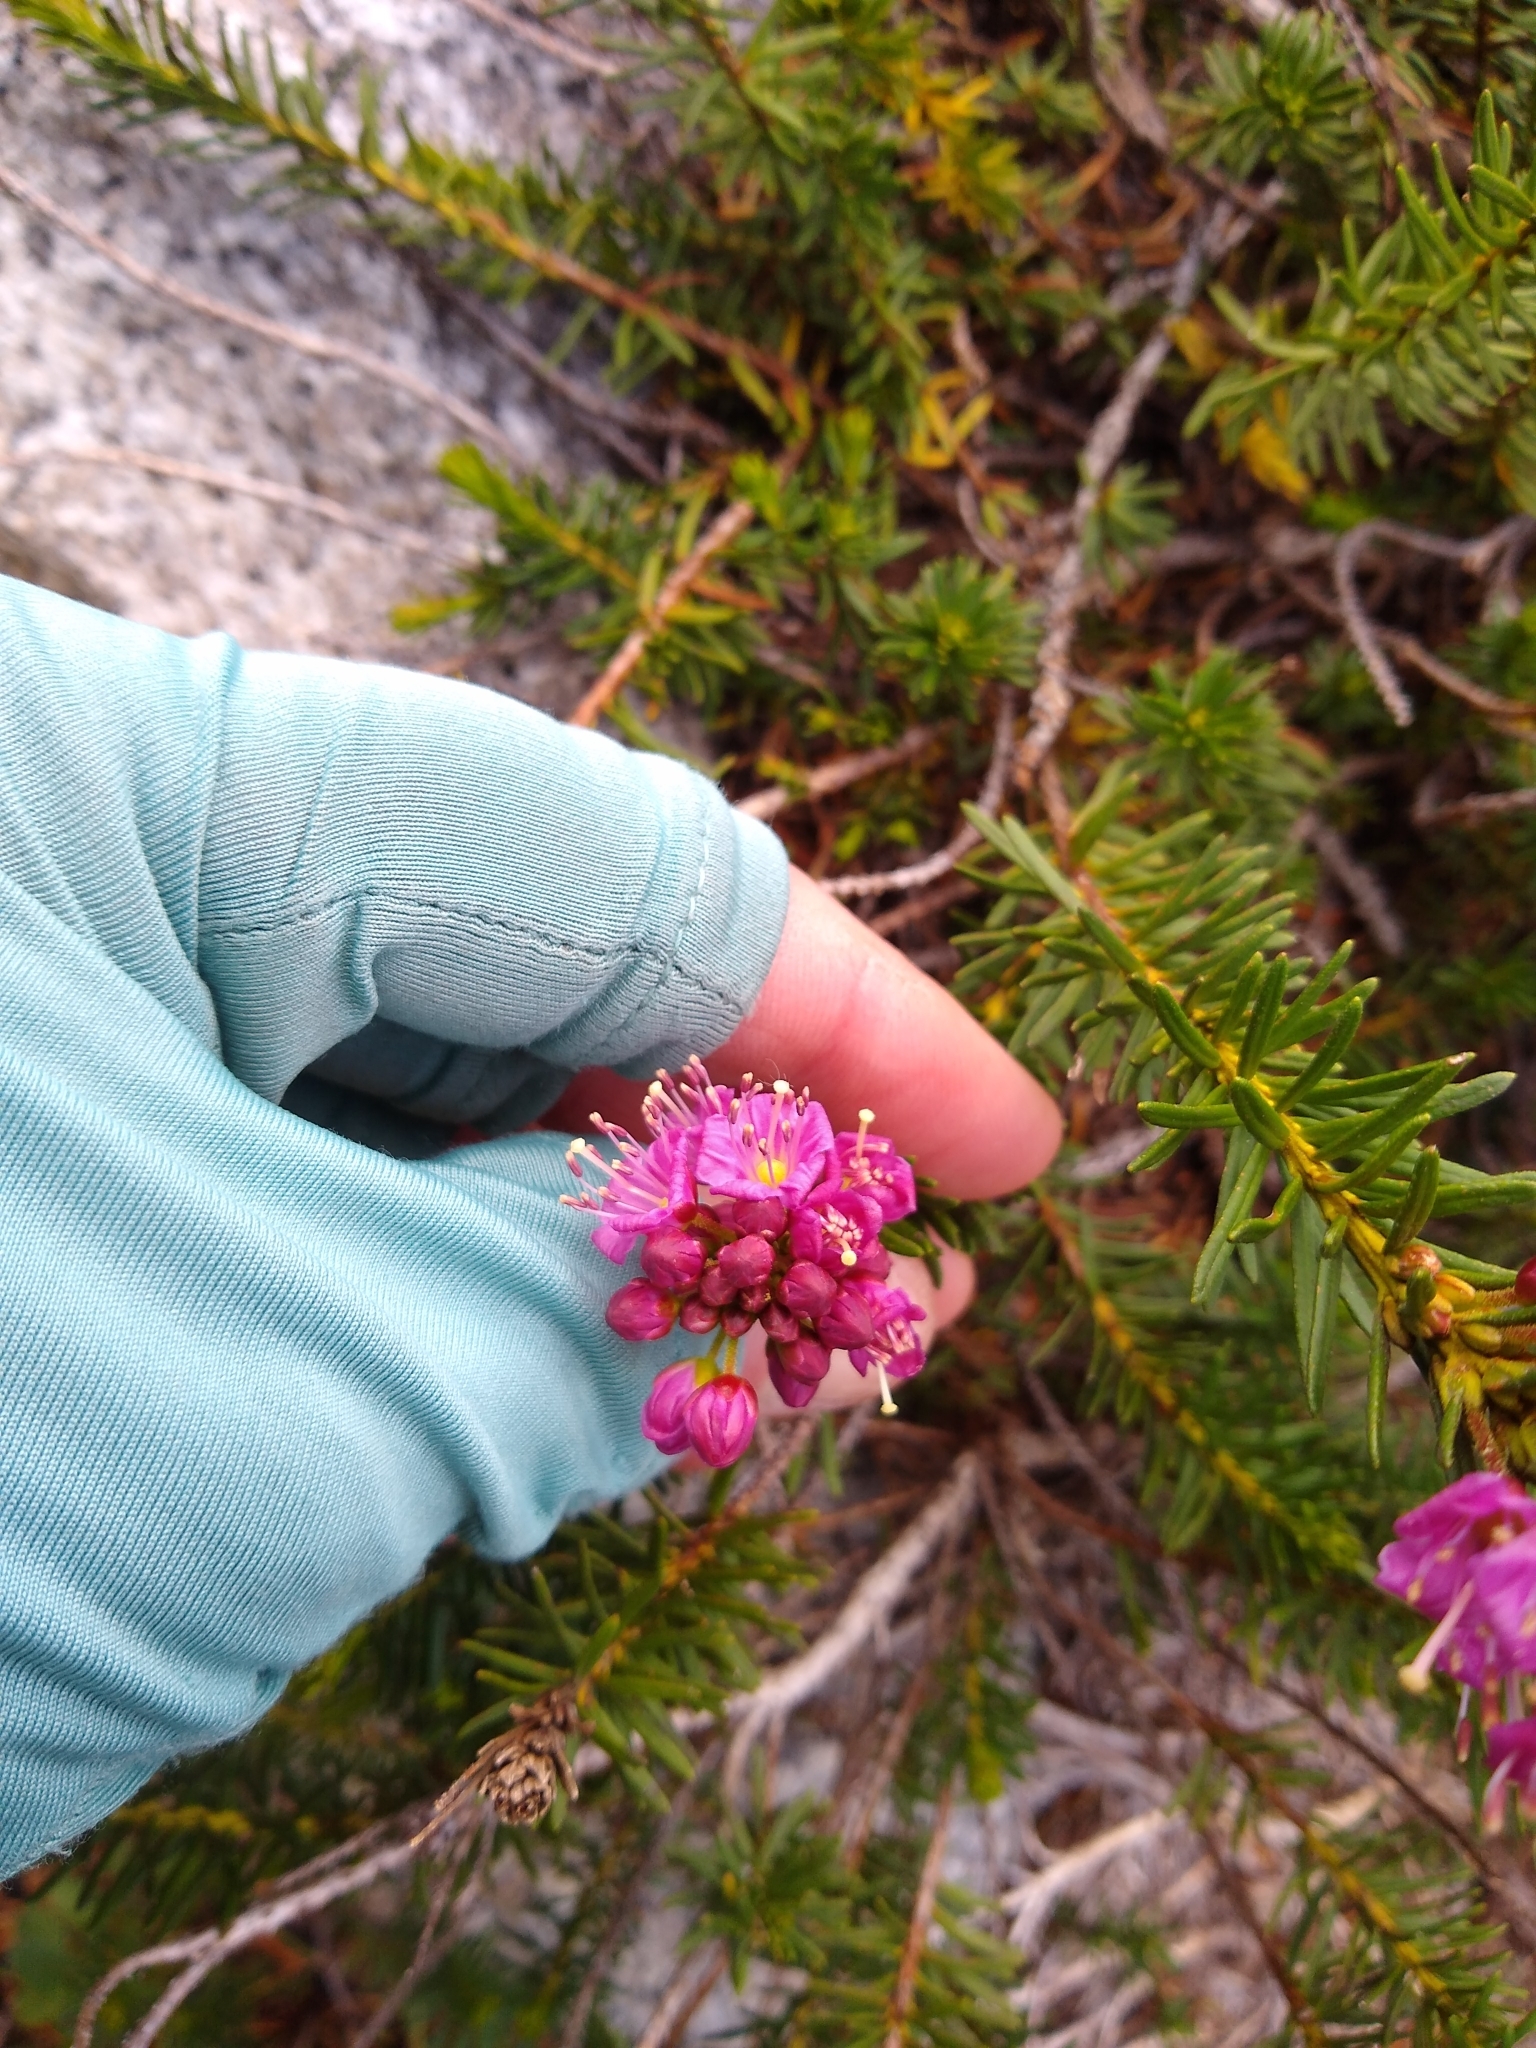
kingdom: Plantae
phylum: Tracheophyta
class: Magnoliopsida
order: Ericales
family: Ericaceae
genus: Phyllodoce
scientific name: Phyllodoce breweri
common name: Brewer's mountain-heather
